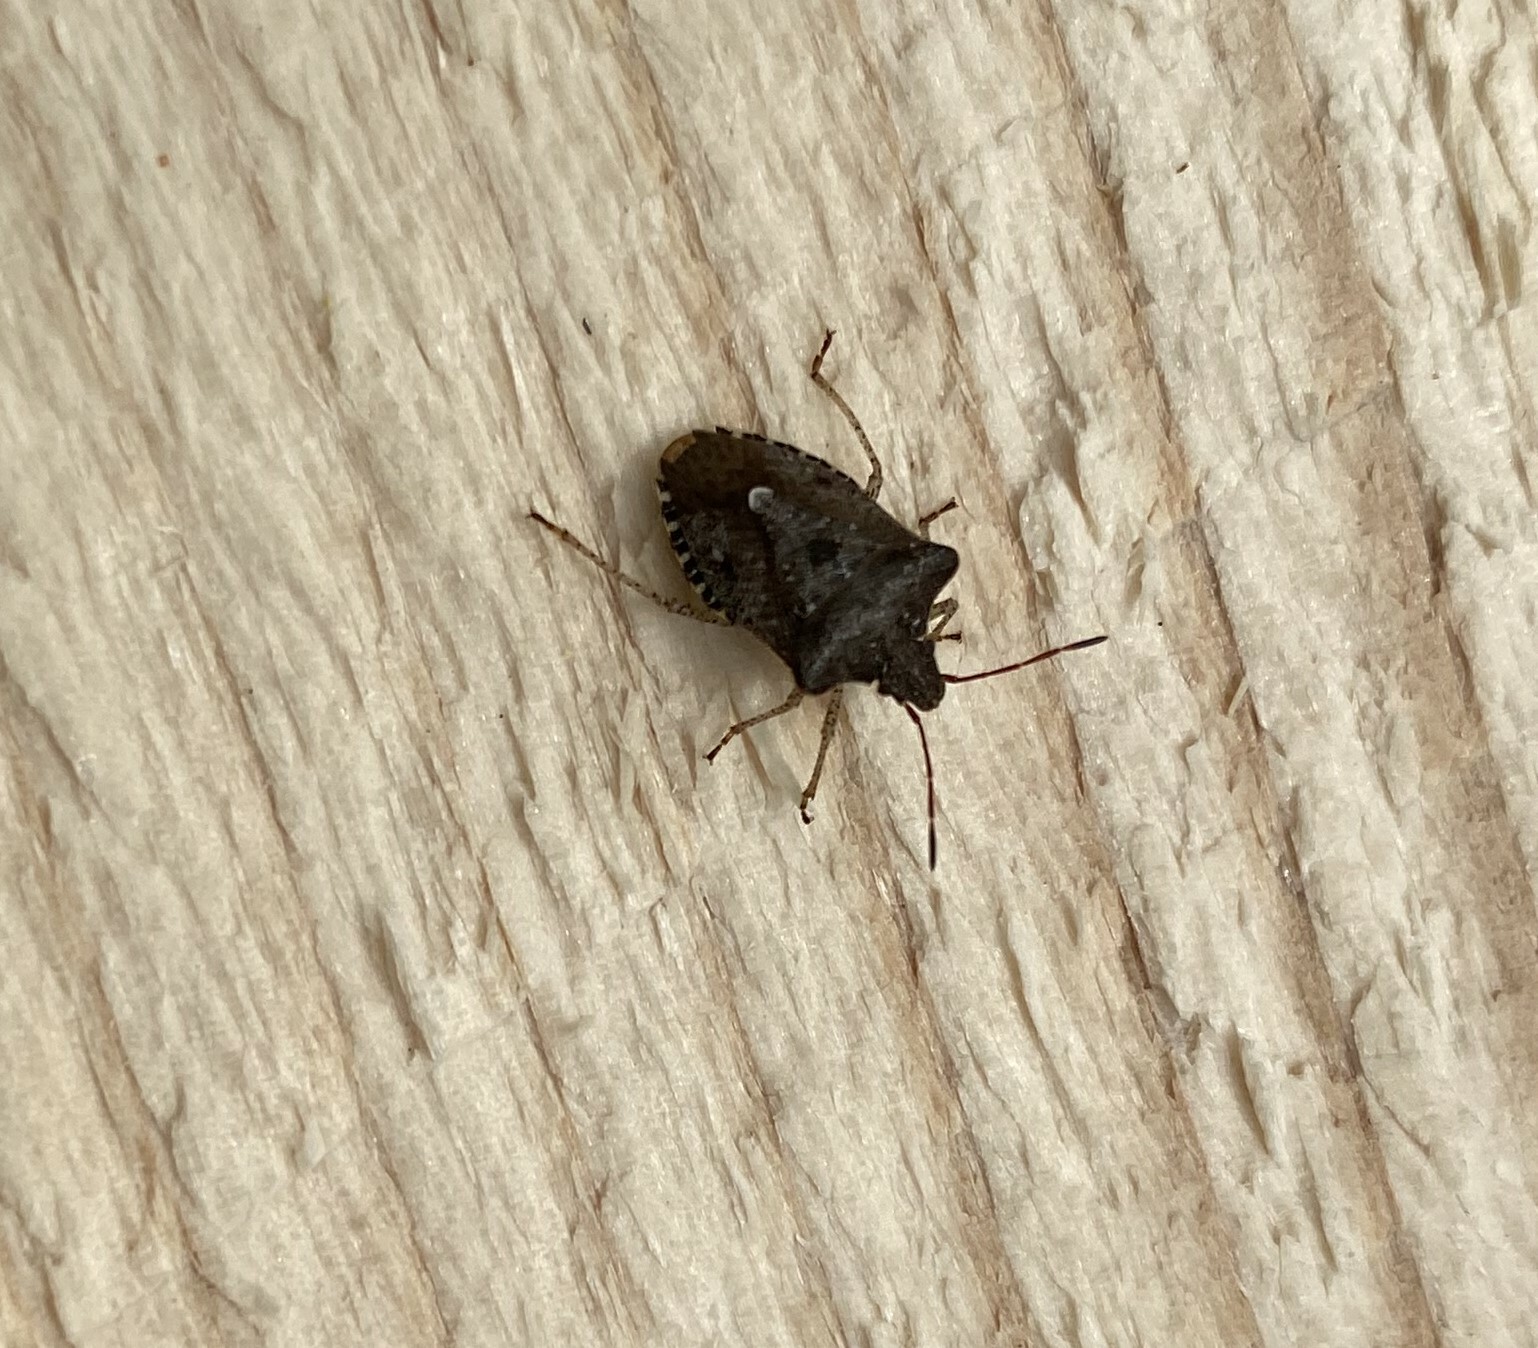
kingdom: Animalia
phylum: Arthropoda
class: Insecta
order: Hemiptera
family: Pentatomidae
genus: Euschistus
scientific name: Euschistus tristigmus
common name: Dusky stink bug
